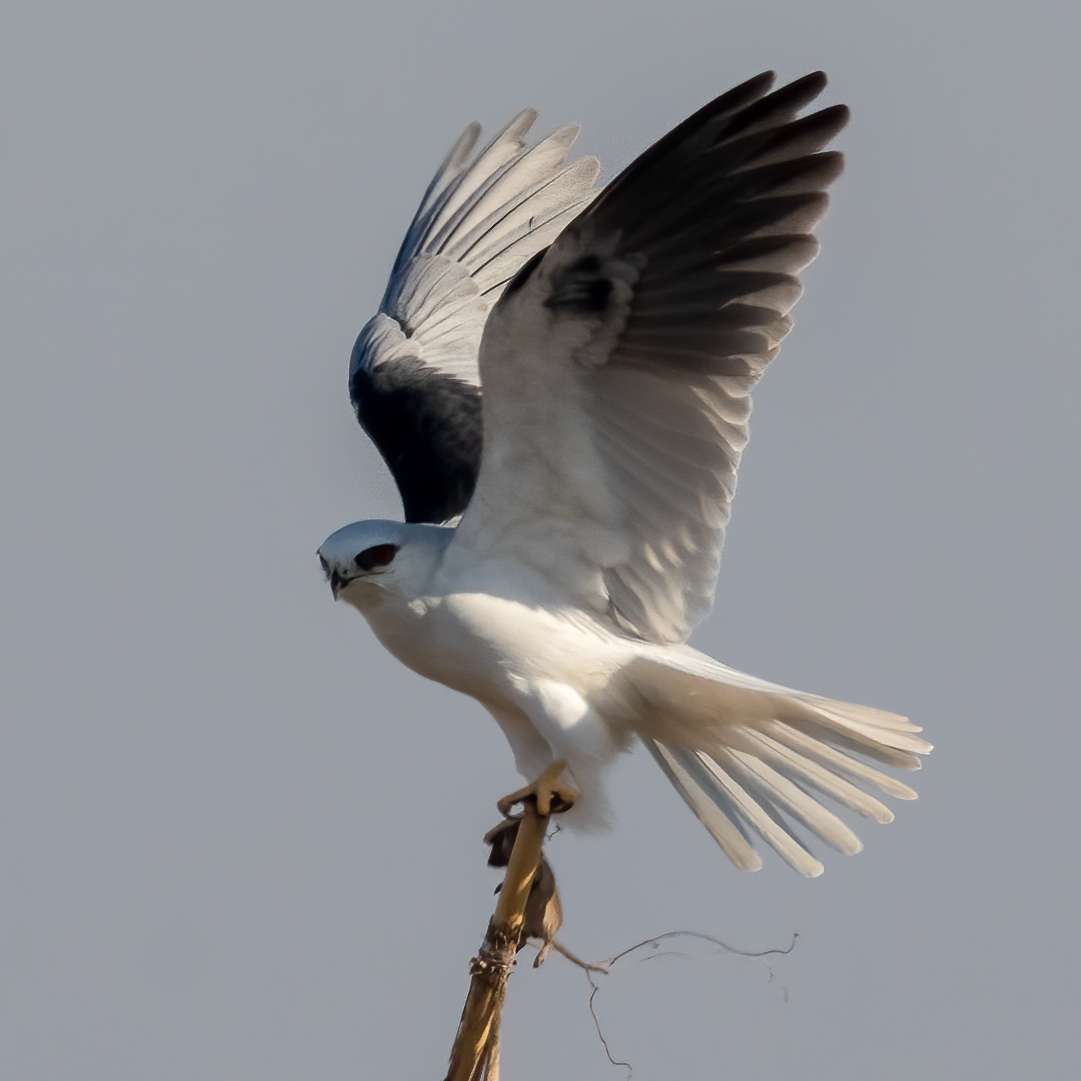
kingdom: Animalia
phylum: Chordata
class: Aves
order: Accipitriformes
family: Accipitridae
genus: Elanus
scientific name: Elanus leucurus
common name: White-tailed kite
